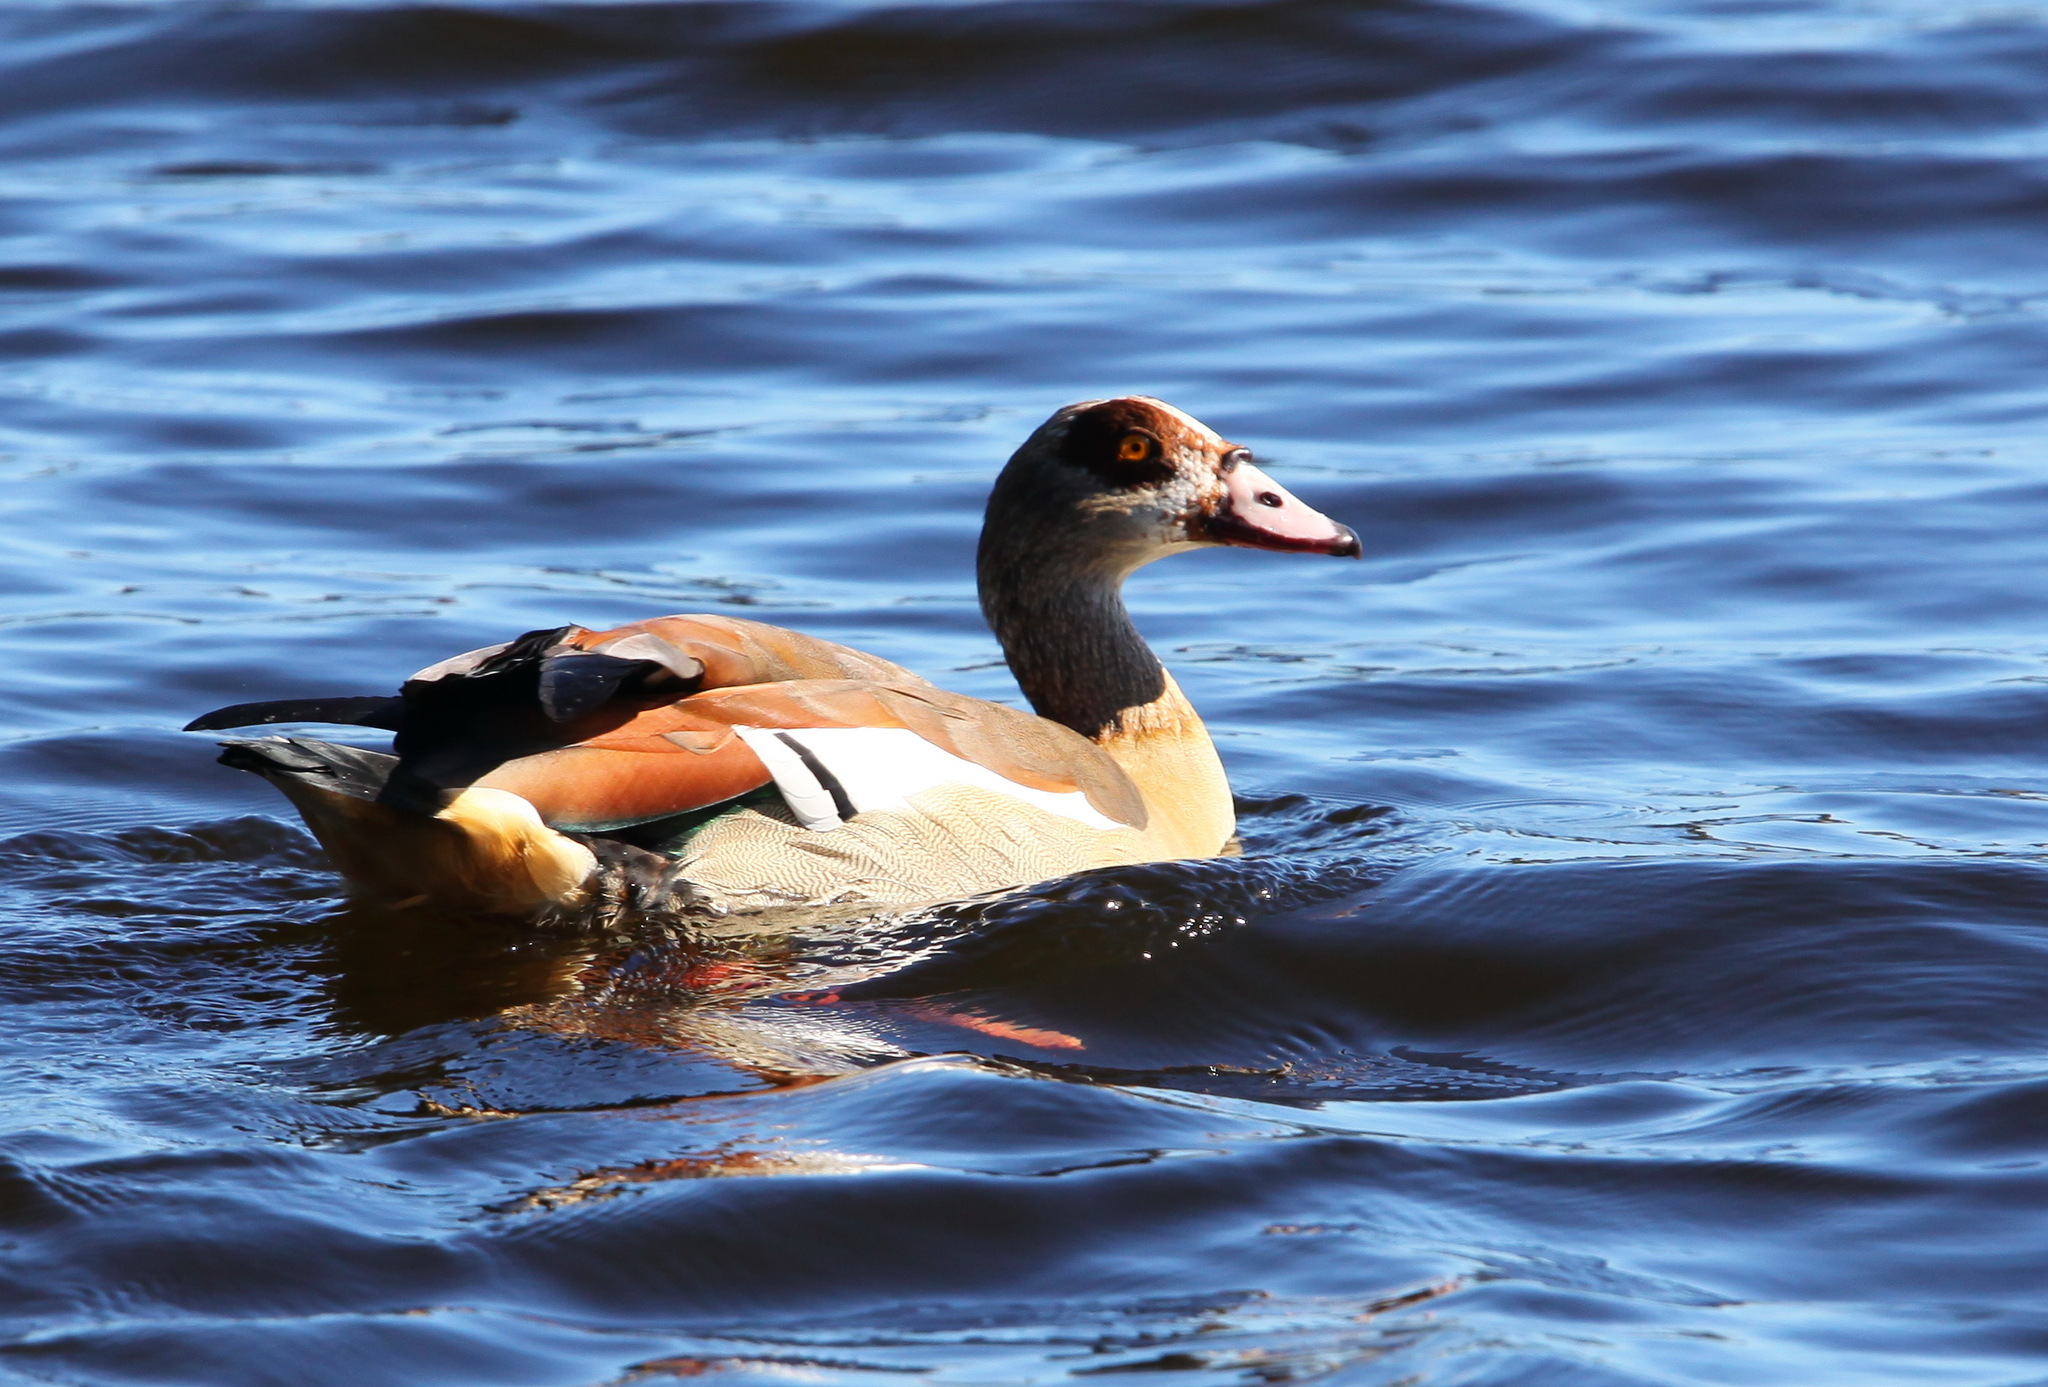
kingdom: Animalia
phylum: Chordata
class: Aves
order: Anseriformes
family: Anatidae
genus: Alopochen
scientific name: Alopochen aegyptiaca
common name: Egyptian goose
